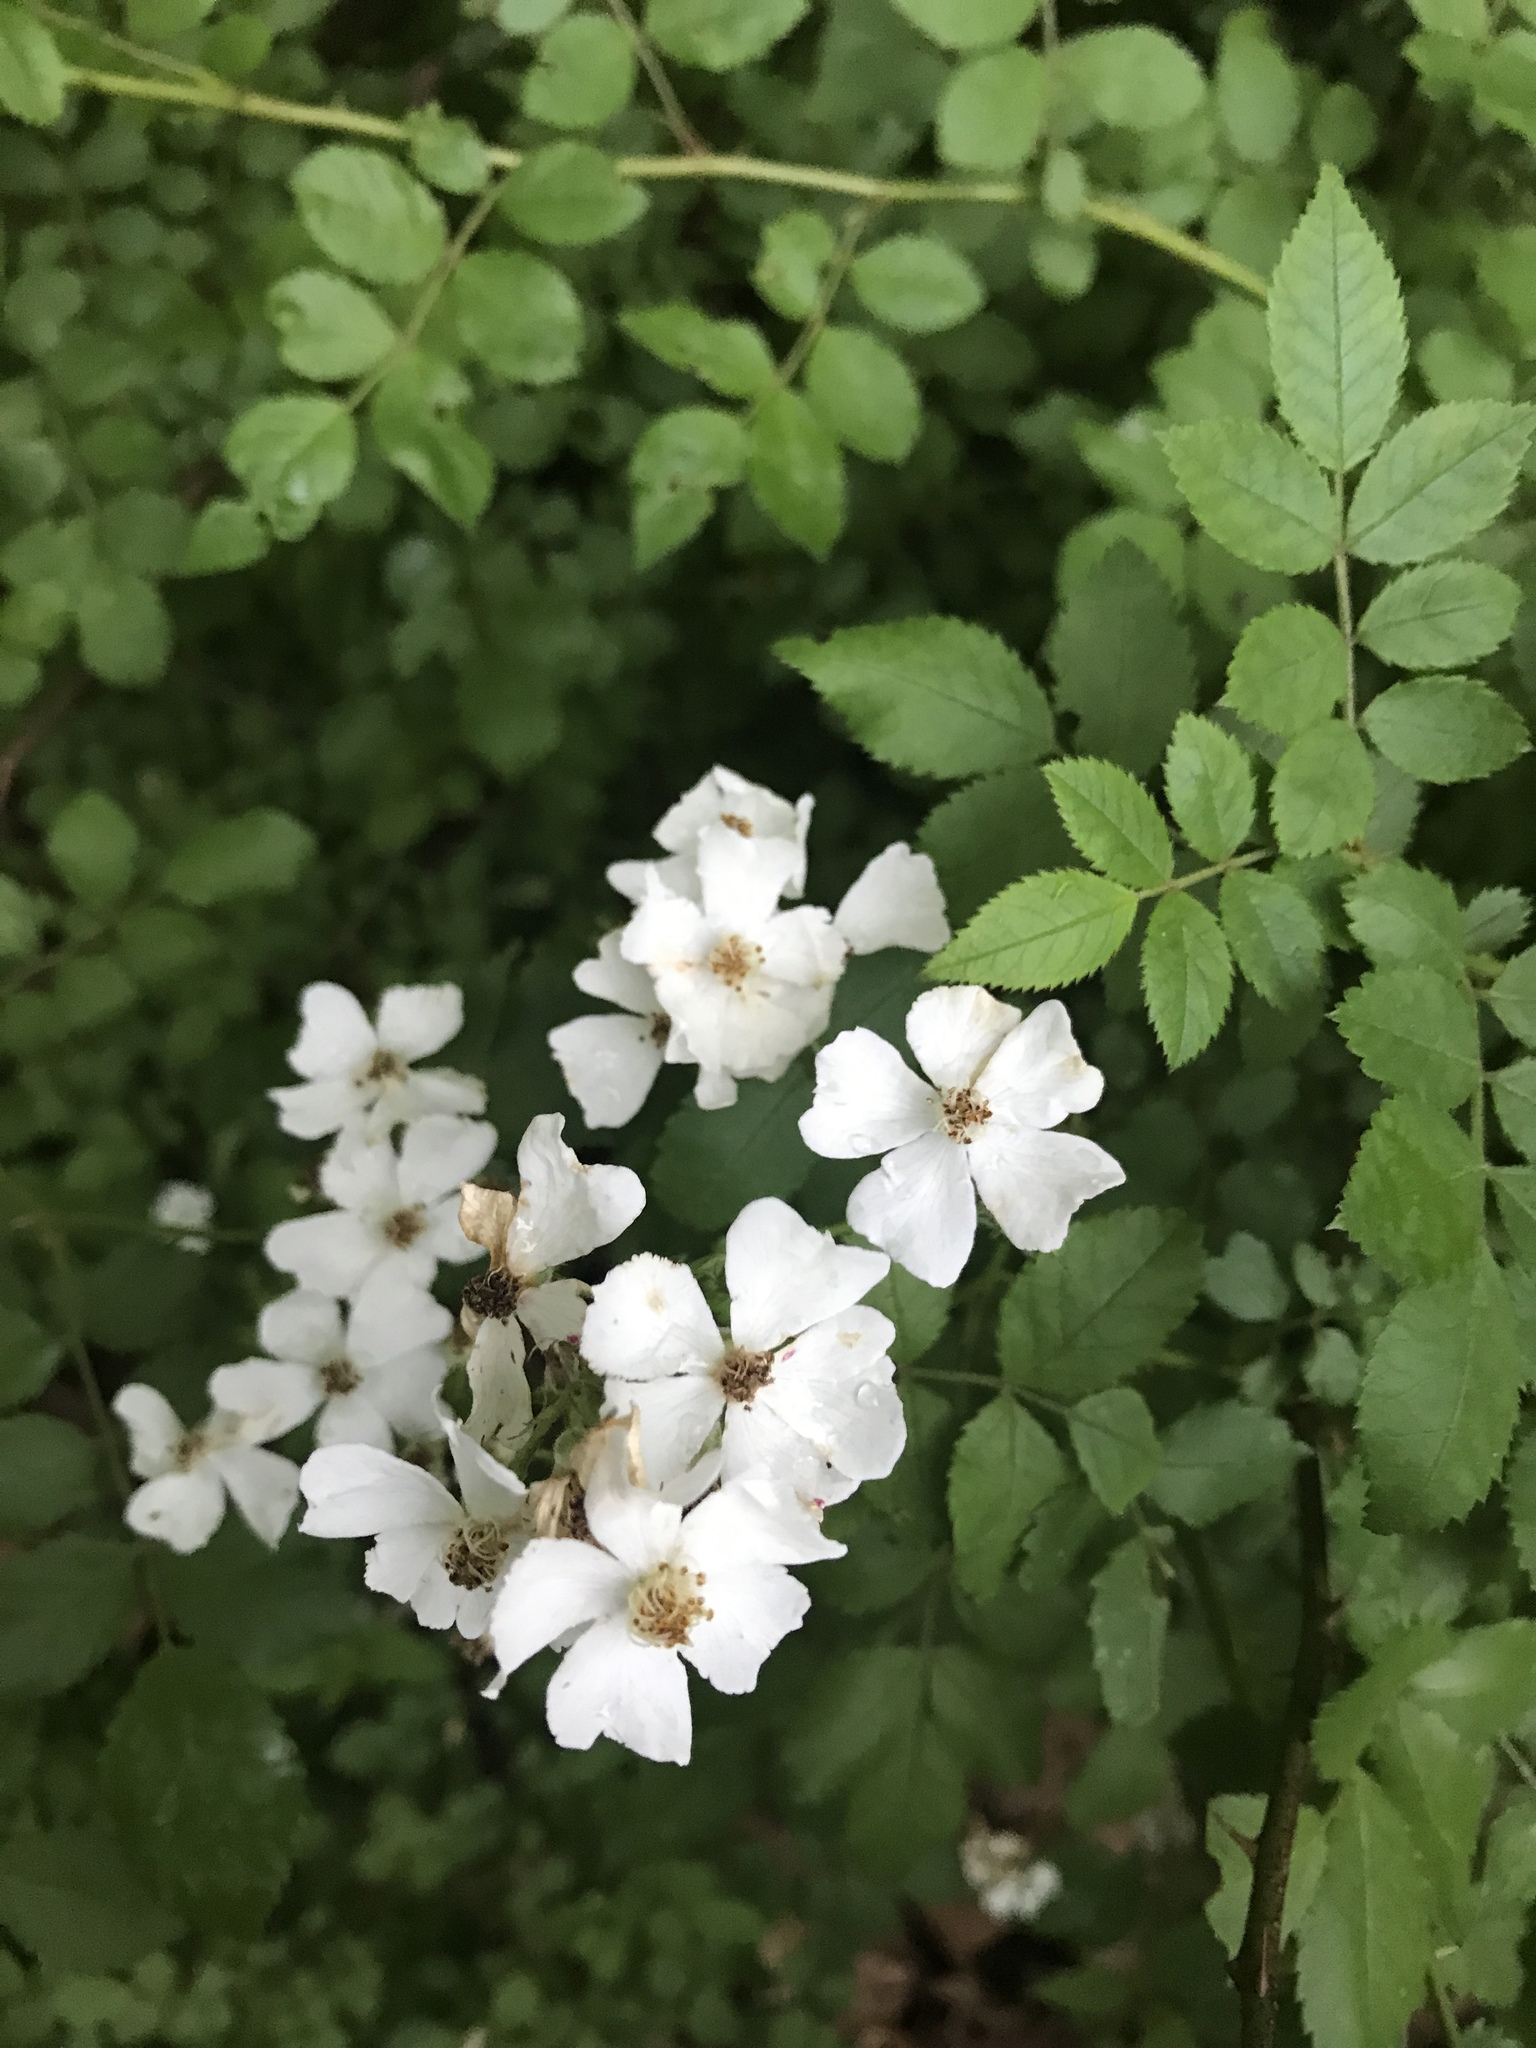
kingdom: Plantae
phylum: Tracheophyta
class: Magnoliopsida
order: Rosales
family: Rosaceae
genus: Rosa
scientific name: Rosa multiflora
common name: Multiflora rose
